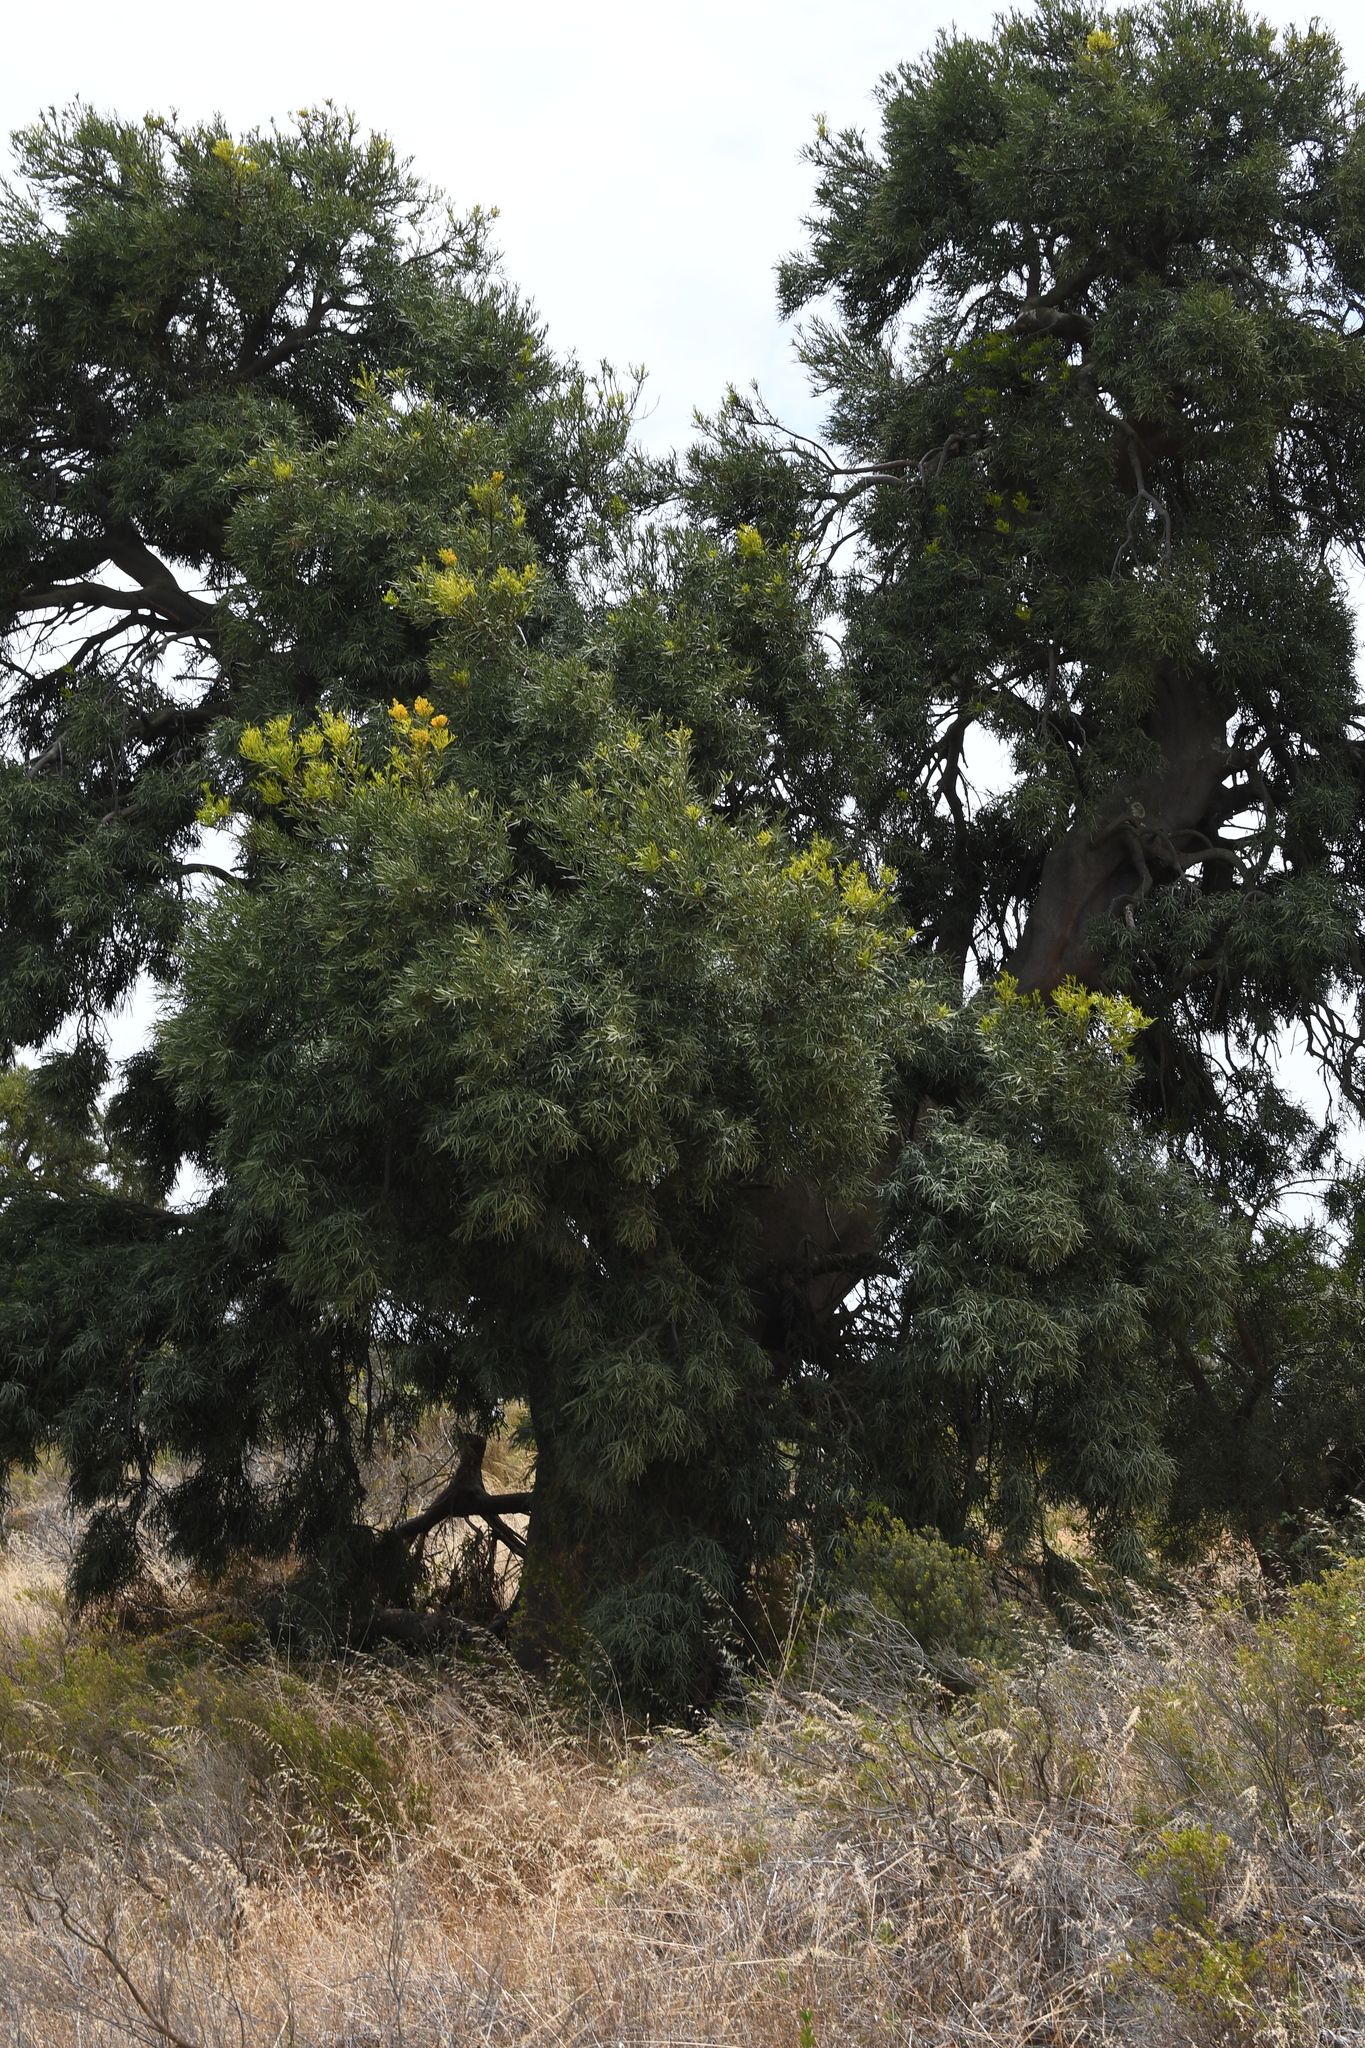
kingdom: Plantae
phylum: Tracheophyta
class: Magnoliopsida
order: Santalales
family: Loranthaceae
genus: Nuytsia
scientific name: Nuytsia floribunda
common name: Western australian christmastree
